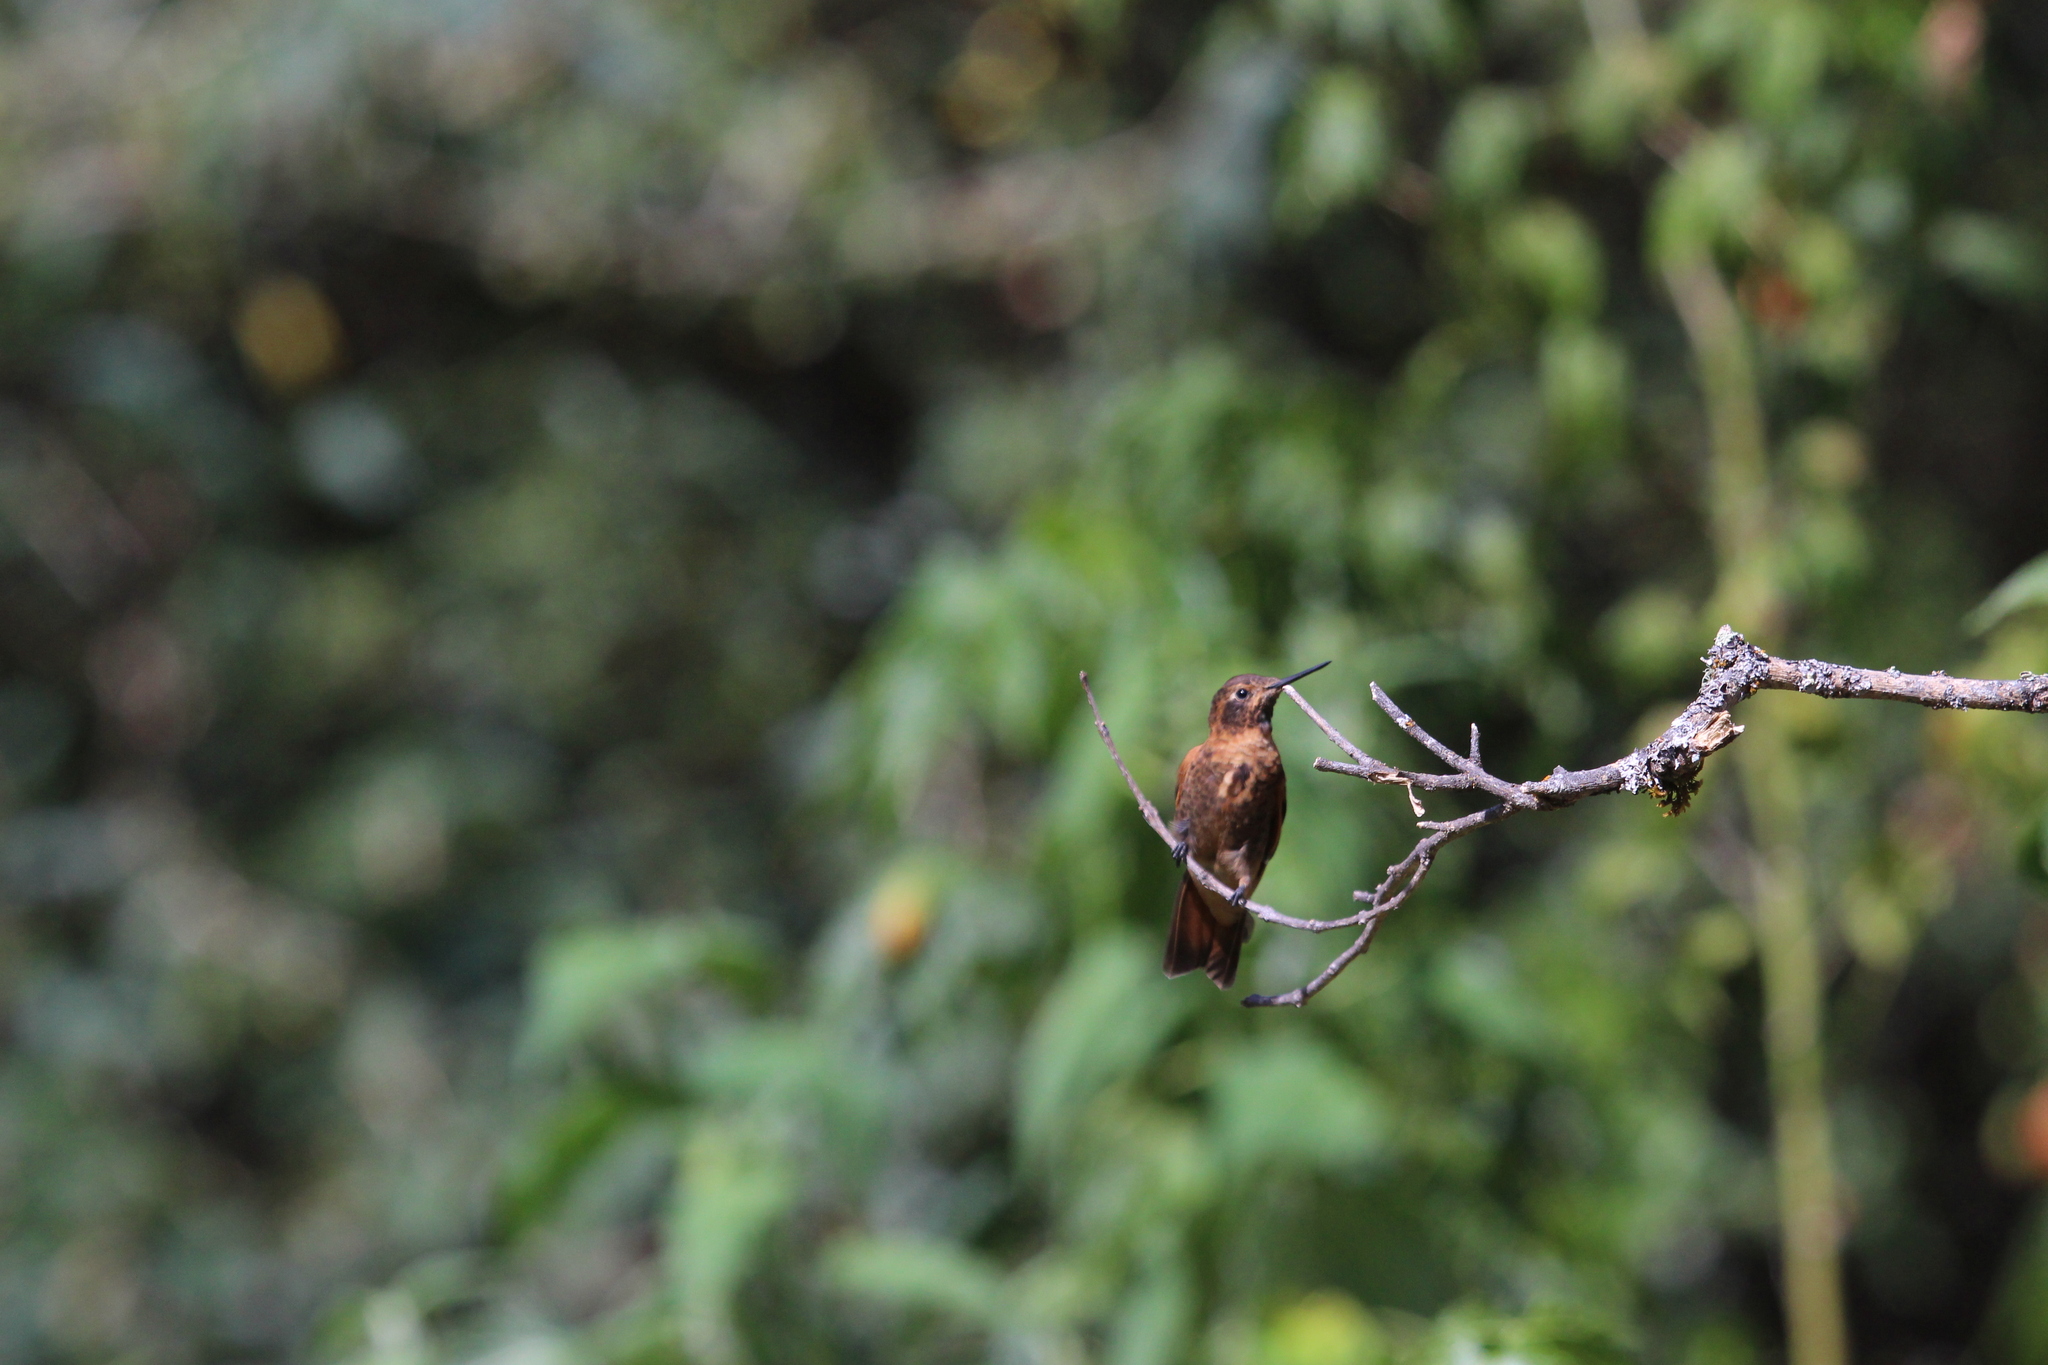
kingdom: Animalia
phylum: Chordata
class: Aves
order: Apodiformes
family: Trochilidae
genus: Aglaeactis
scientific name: Aglaeactis cupripennis
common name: Shining sunbeam
